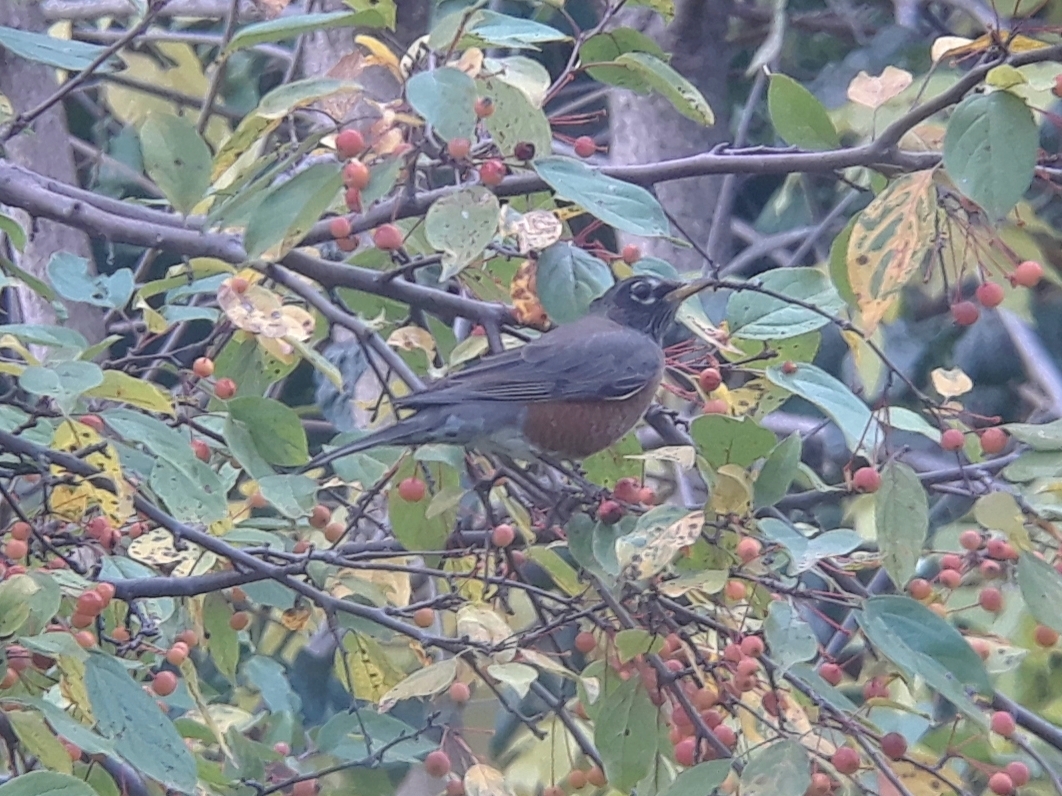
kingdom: Animalia
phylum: Chordata
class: Aves
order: Passeriformes
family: Turdidae
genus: Turdus
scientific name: Turdus migratorius
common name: American robin
